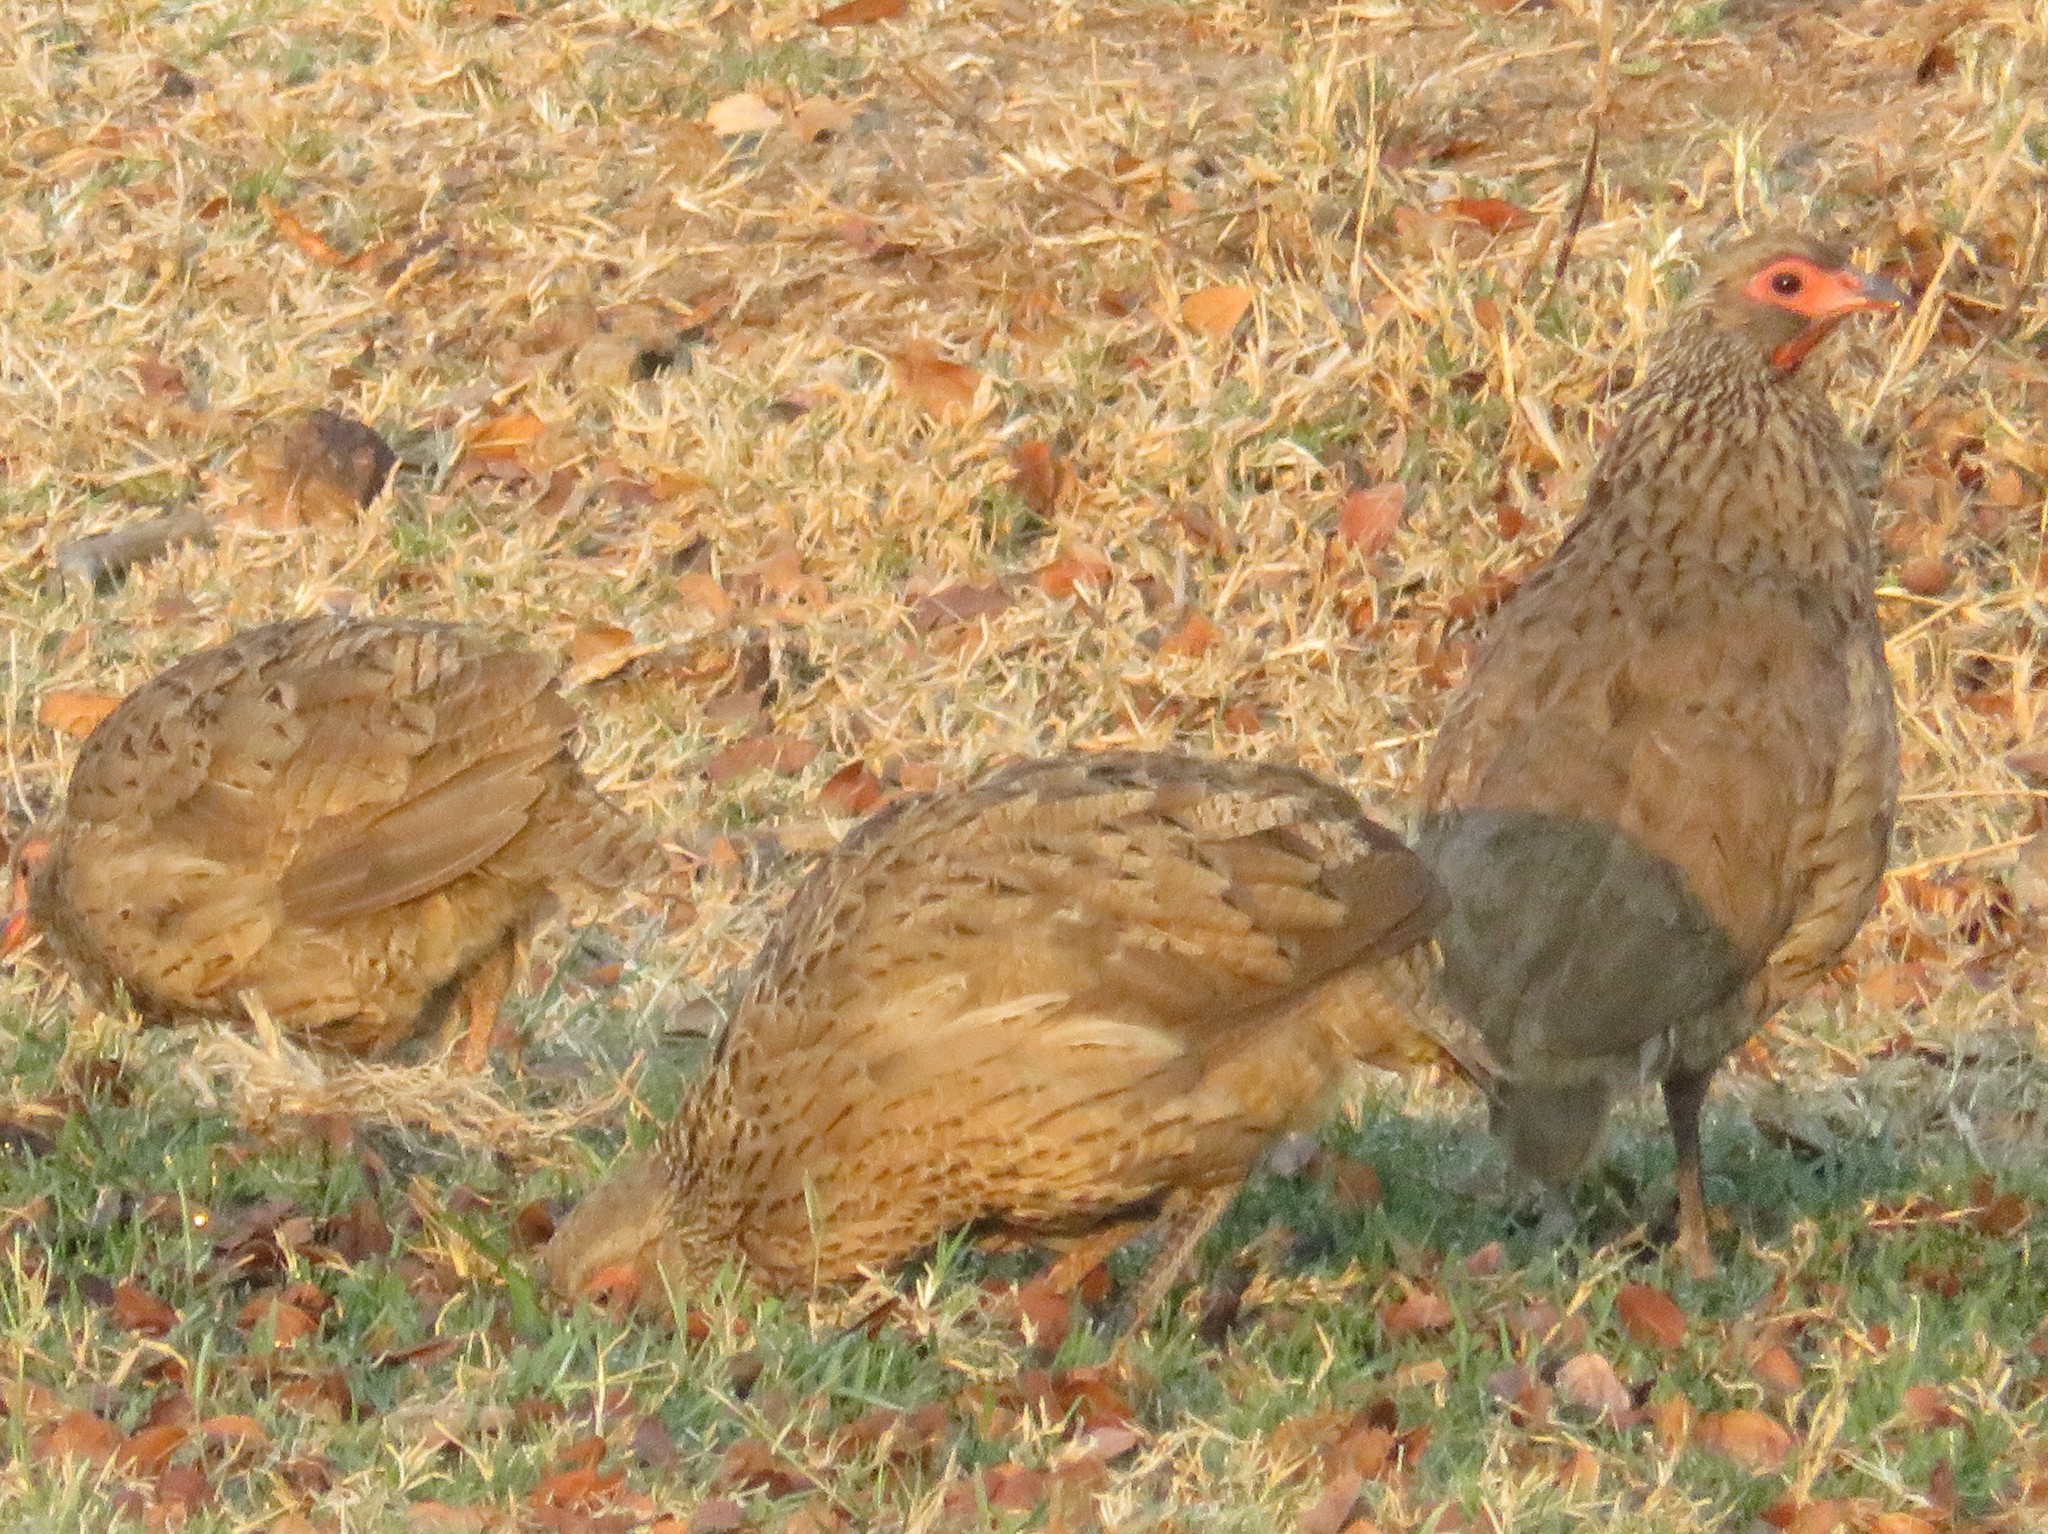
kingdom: Animalia
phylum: Chordata
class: Aves
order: Galliformes
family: Phasianidae
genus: Pternistis
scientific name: Pternistis swainsonii
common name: Swainson's spurfowl
